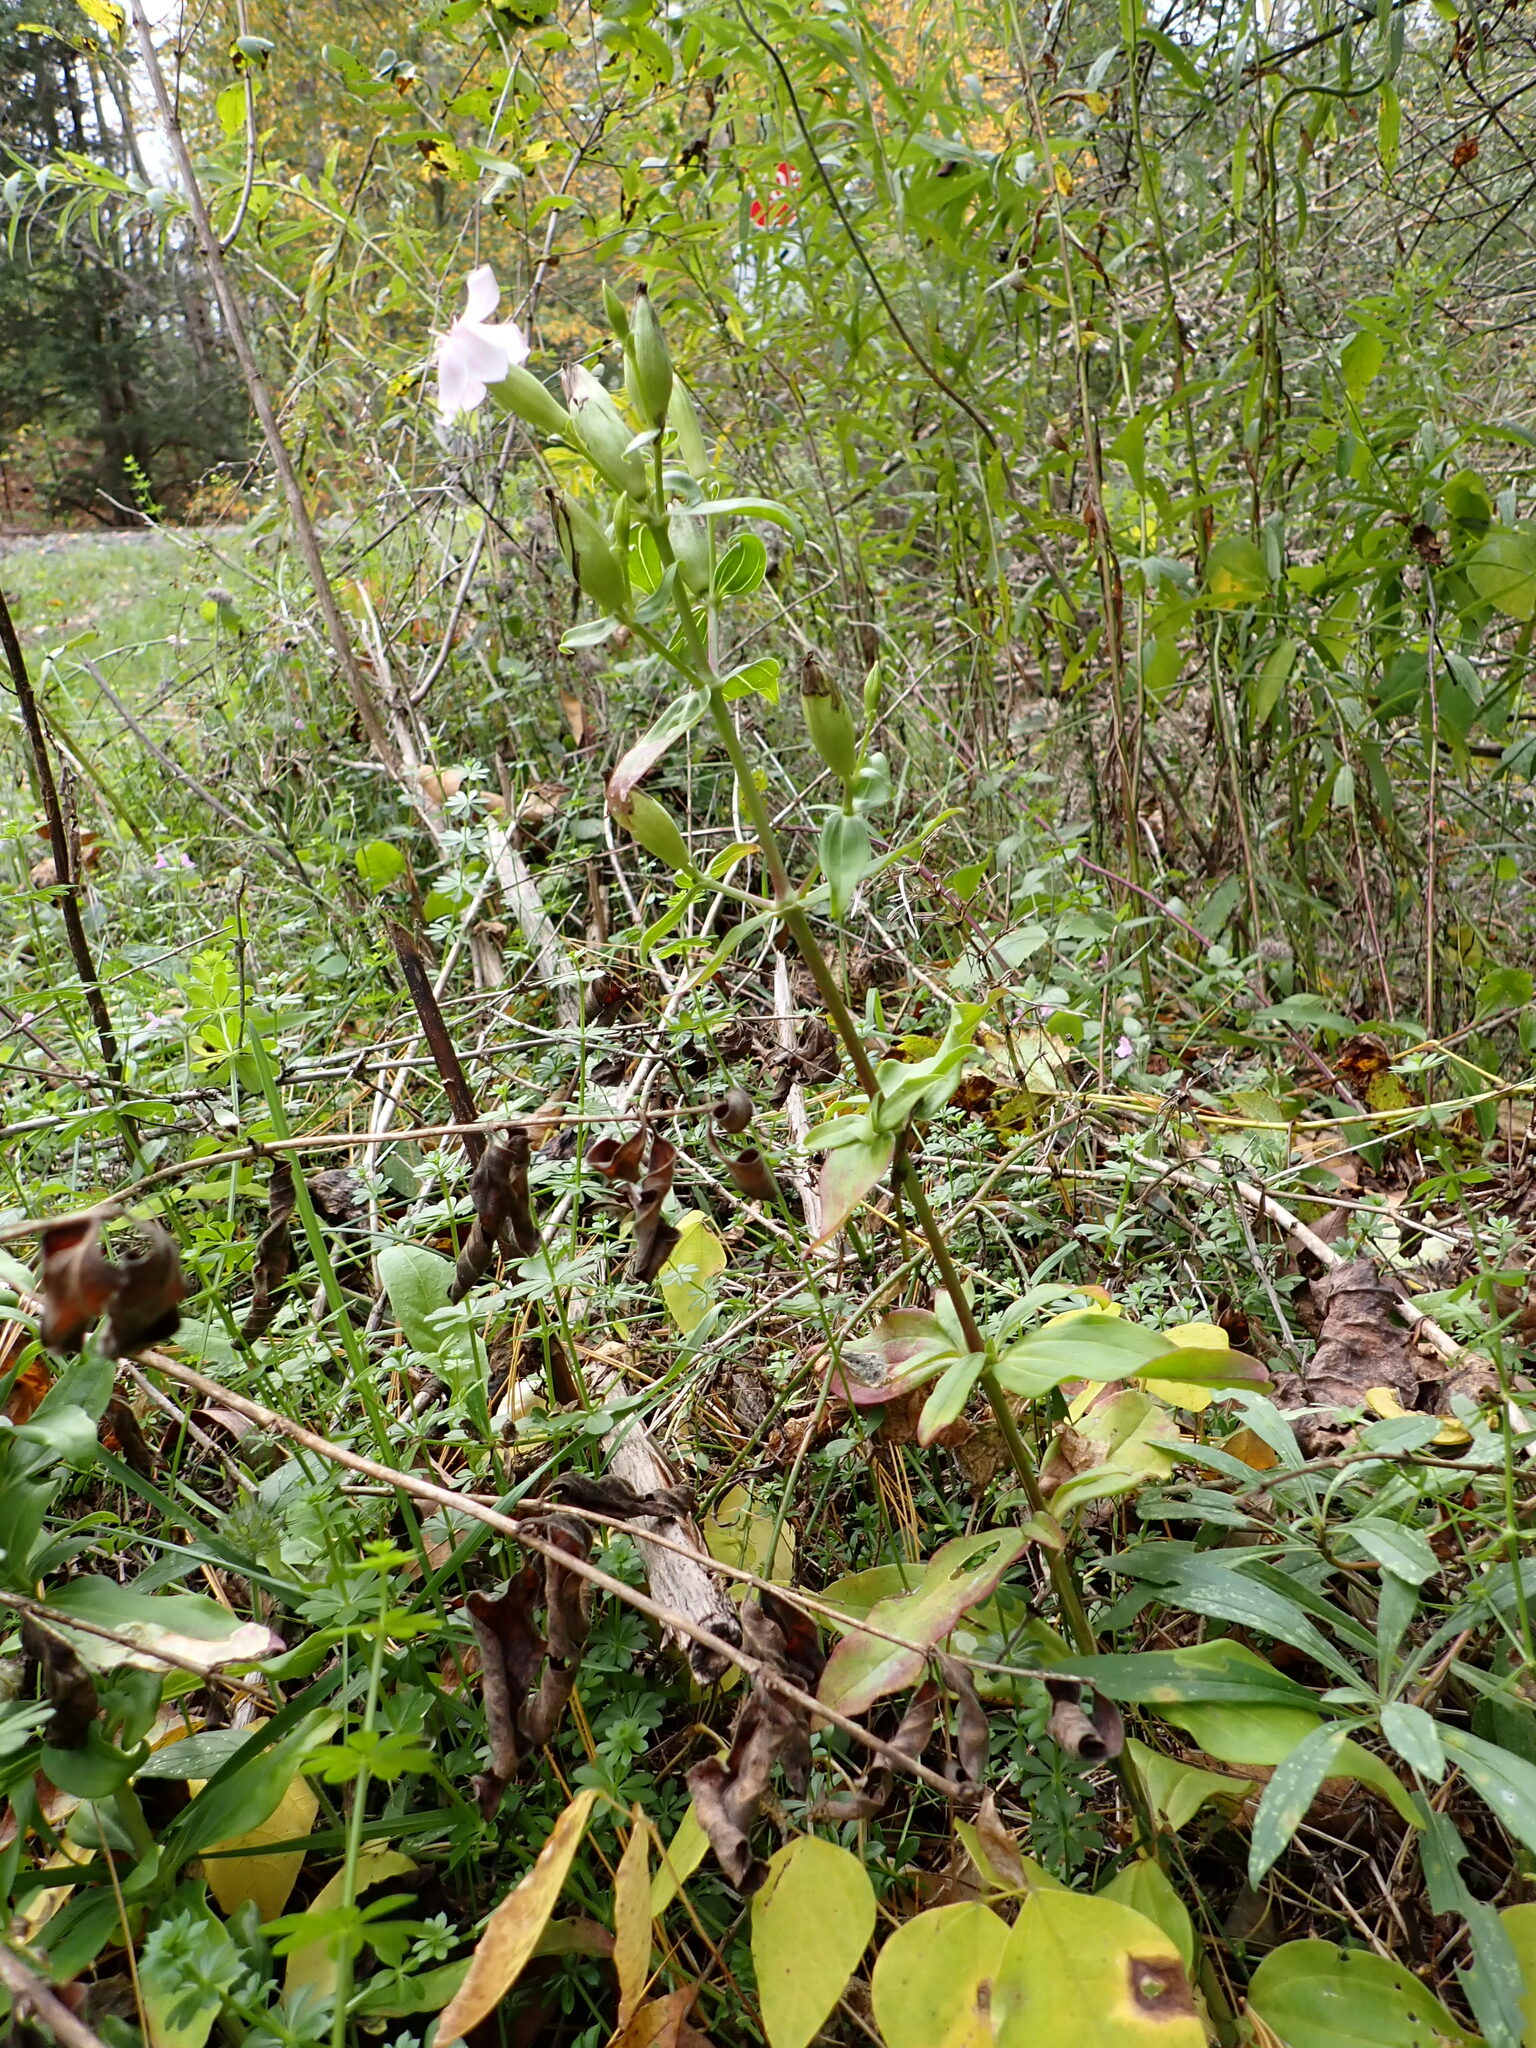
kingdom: Plantae
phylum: Tracheophyta
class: Magnoliopsida
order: Caryophyllales
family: Caryophyllaceae
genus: Saponaria
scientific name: Saponaria officinalis
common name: Soapwort
